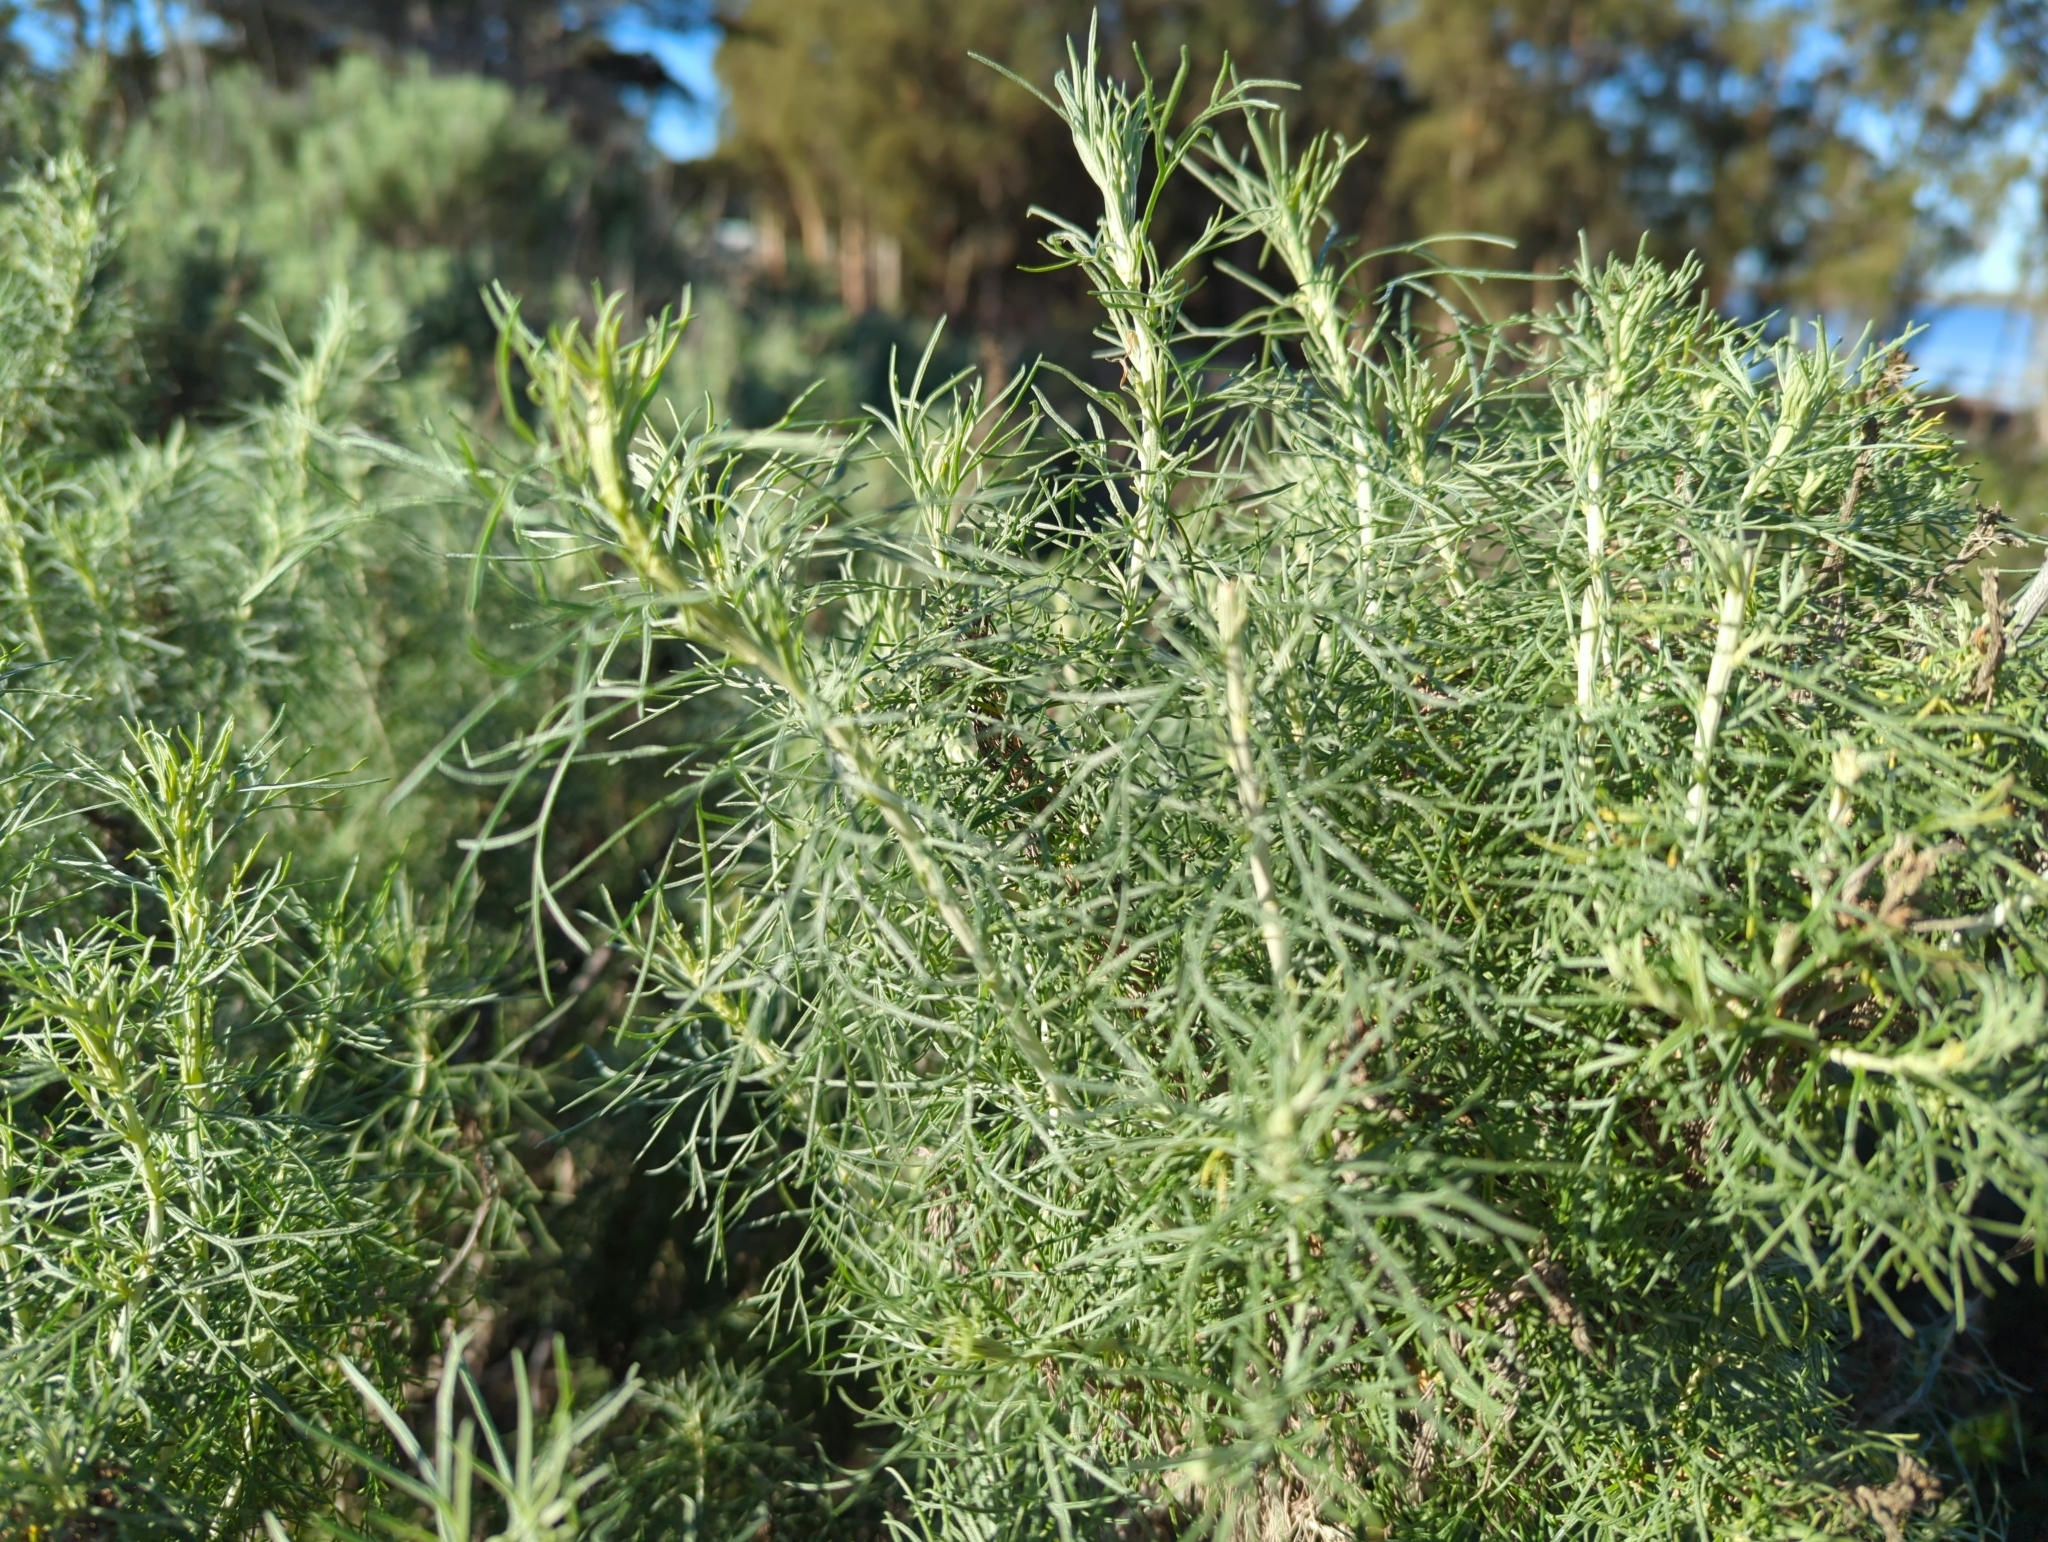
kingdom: Plantae
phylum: Tracheophyta
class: Magnoliopsida
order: Asterales
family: Asteraceae
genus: Artemisia
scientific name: Artemisia californica
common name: California sagebrush
